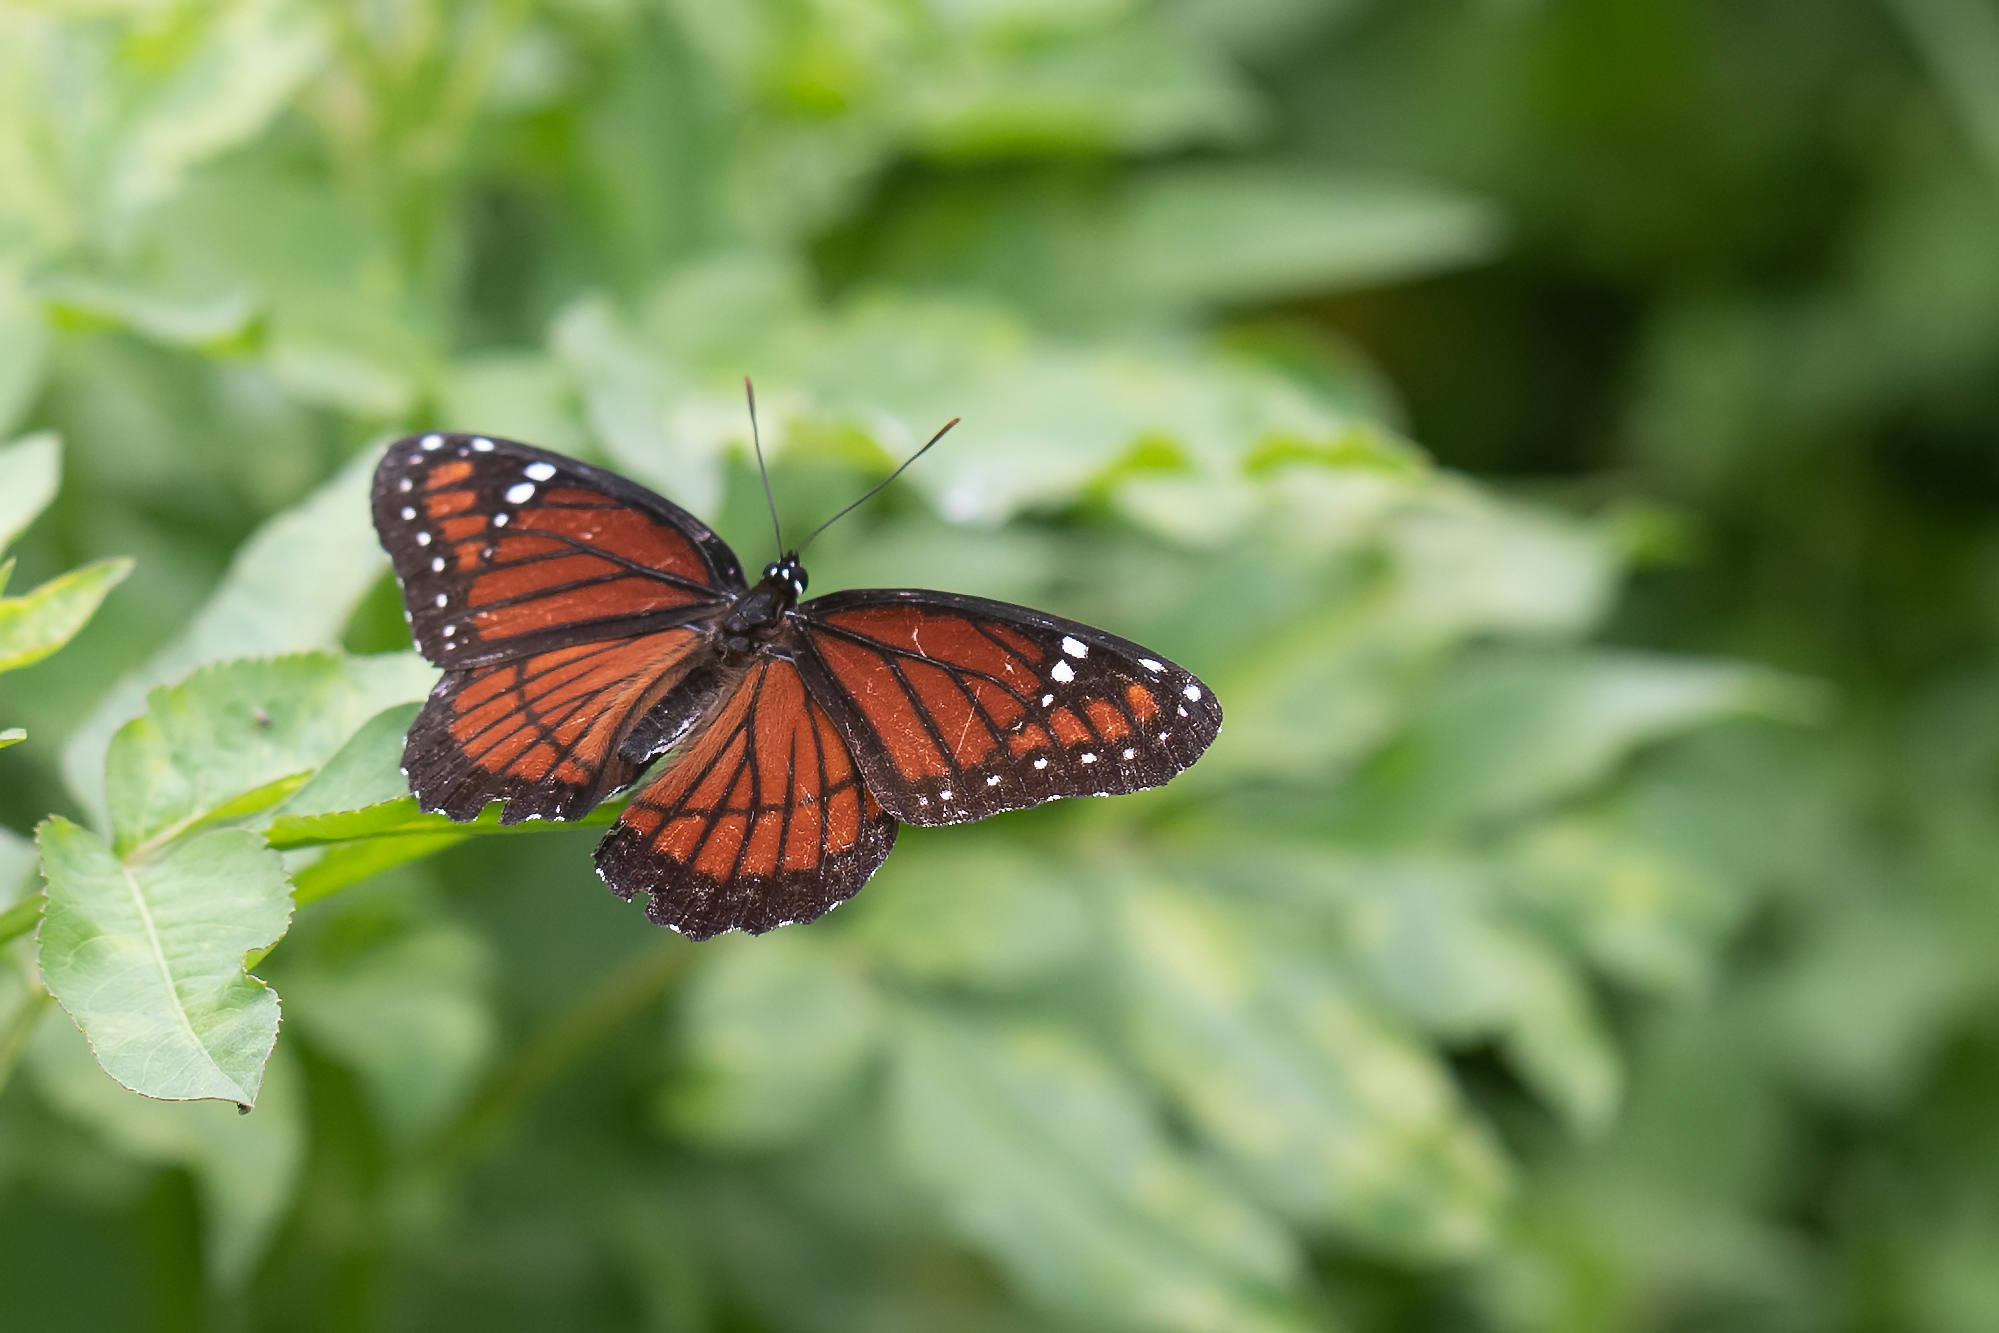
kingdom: Animalia
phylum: Arthropoda
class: Insecta
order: Lepidoptera
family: Nymphalidae
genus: Limenitis
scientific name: Limenitis archippus
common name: Viceroy
